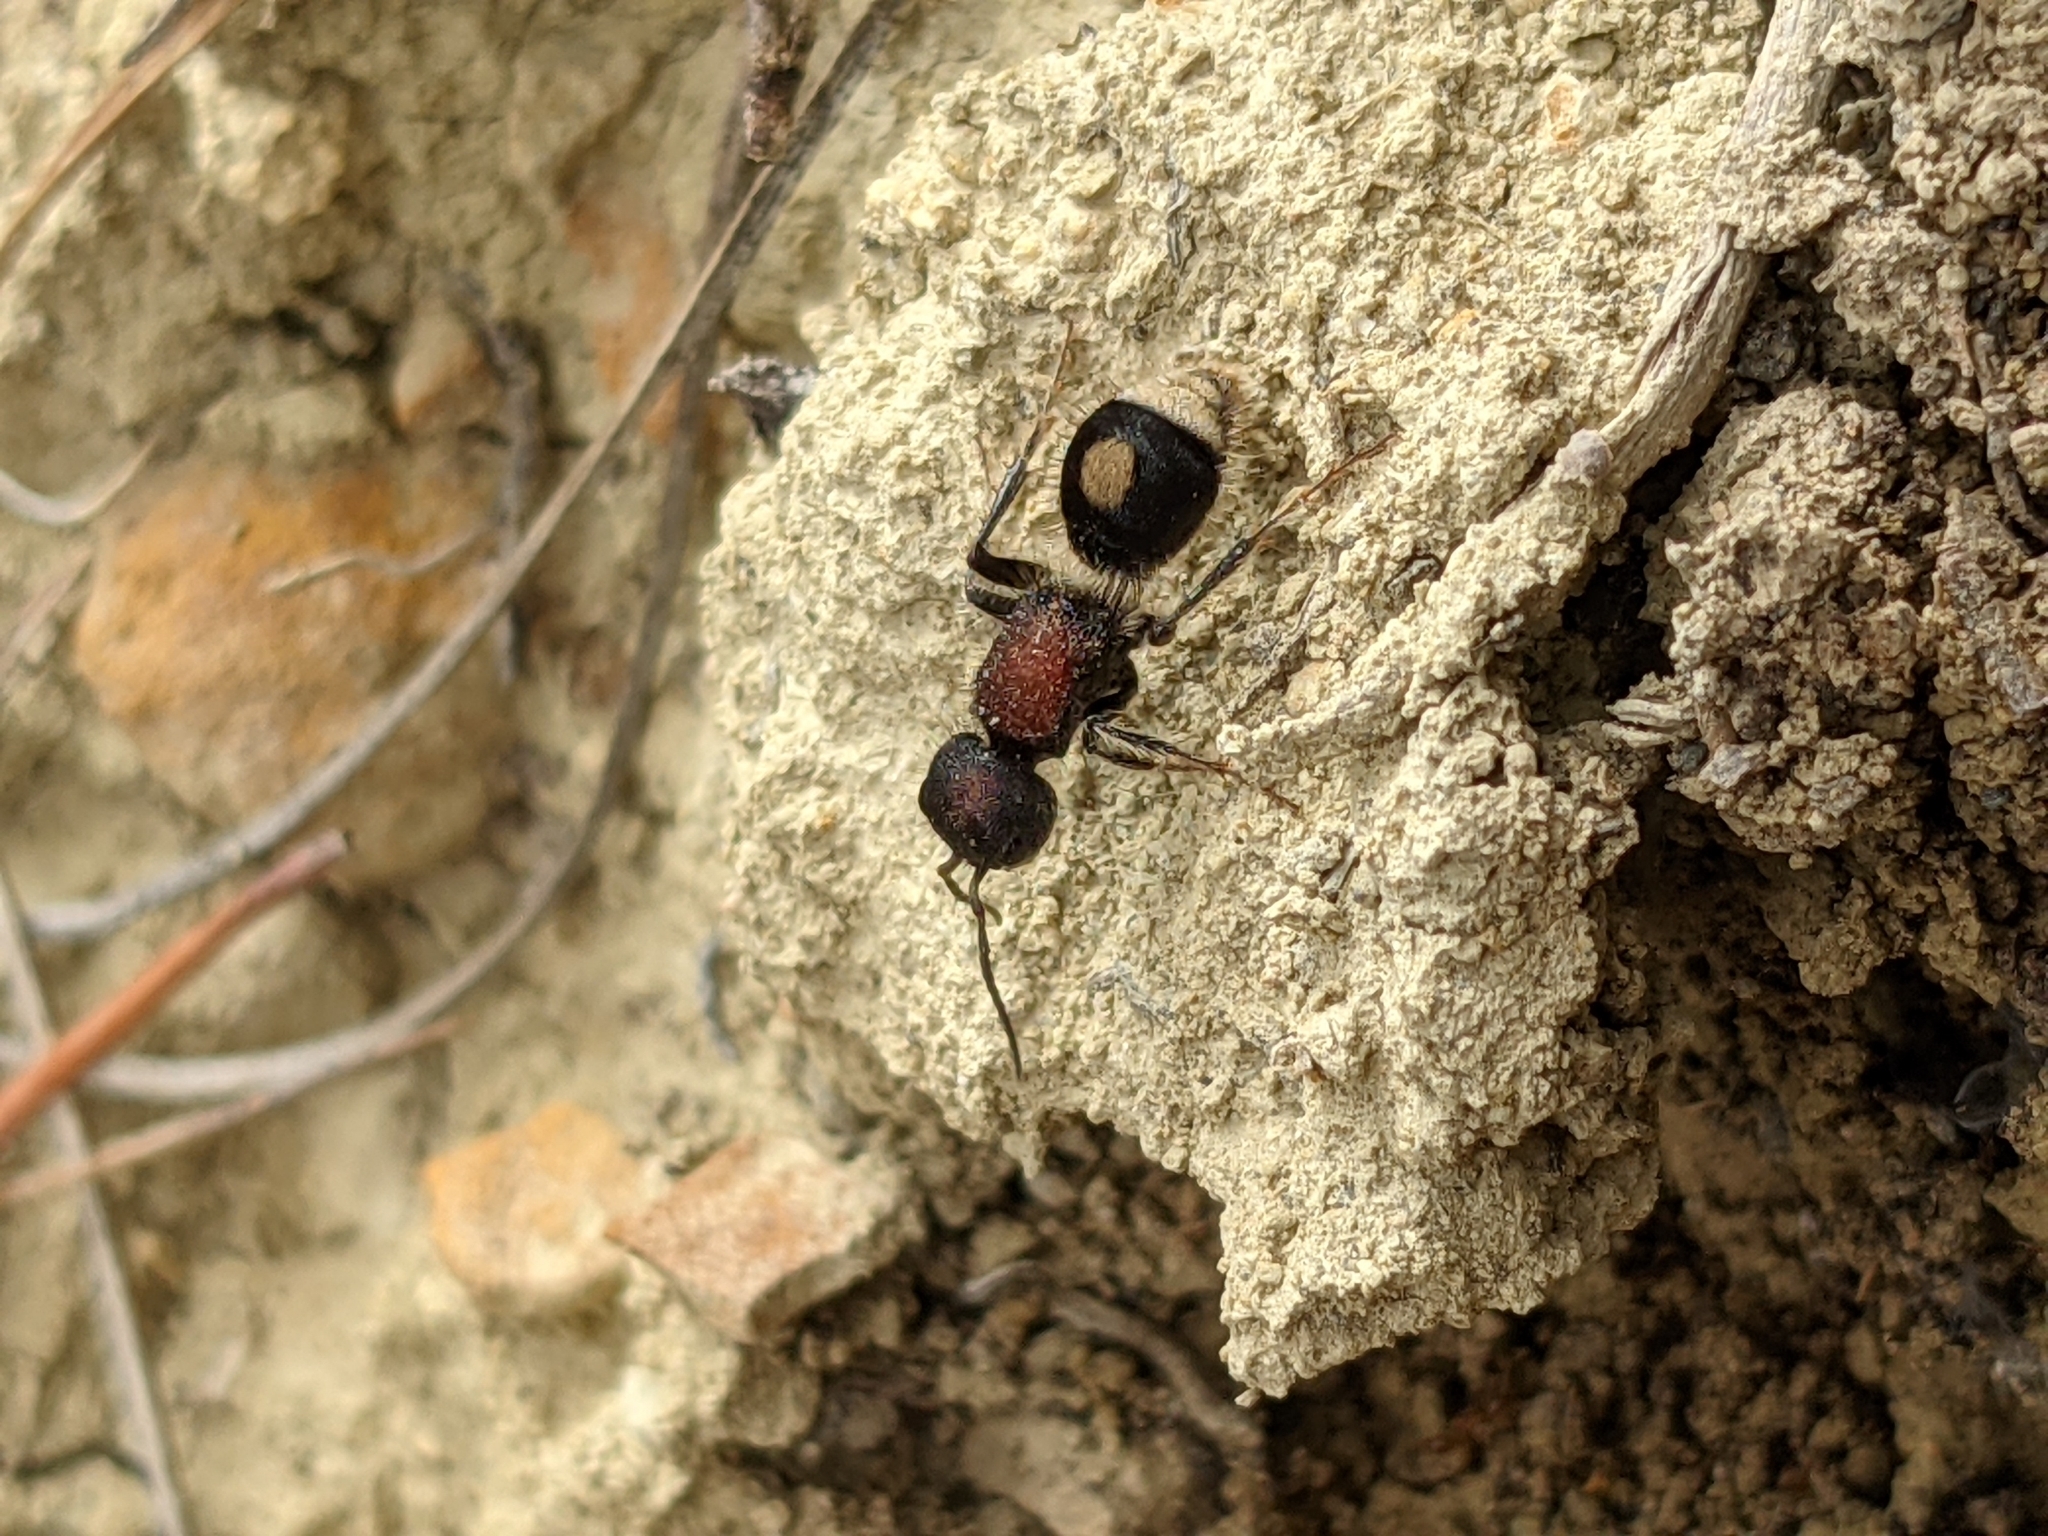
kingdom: Animalia
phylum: Arthropoda
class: Insecta
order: Hymenoptera
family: Mutillidae
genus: Sigilla
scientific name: Sigilla dorsata
